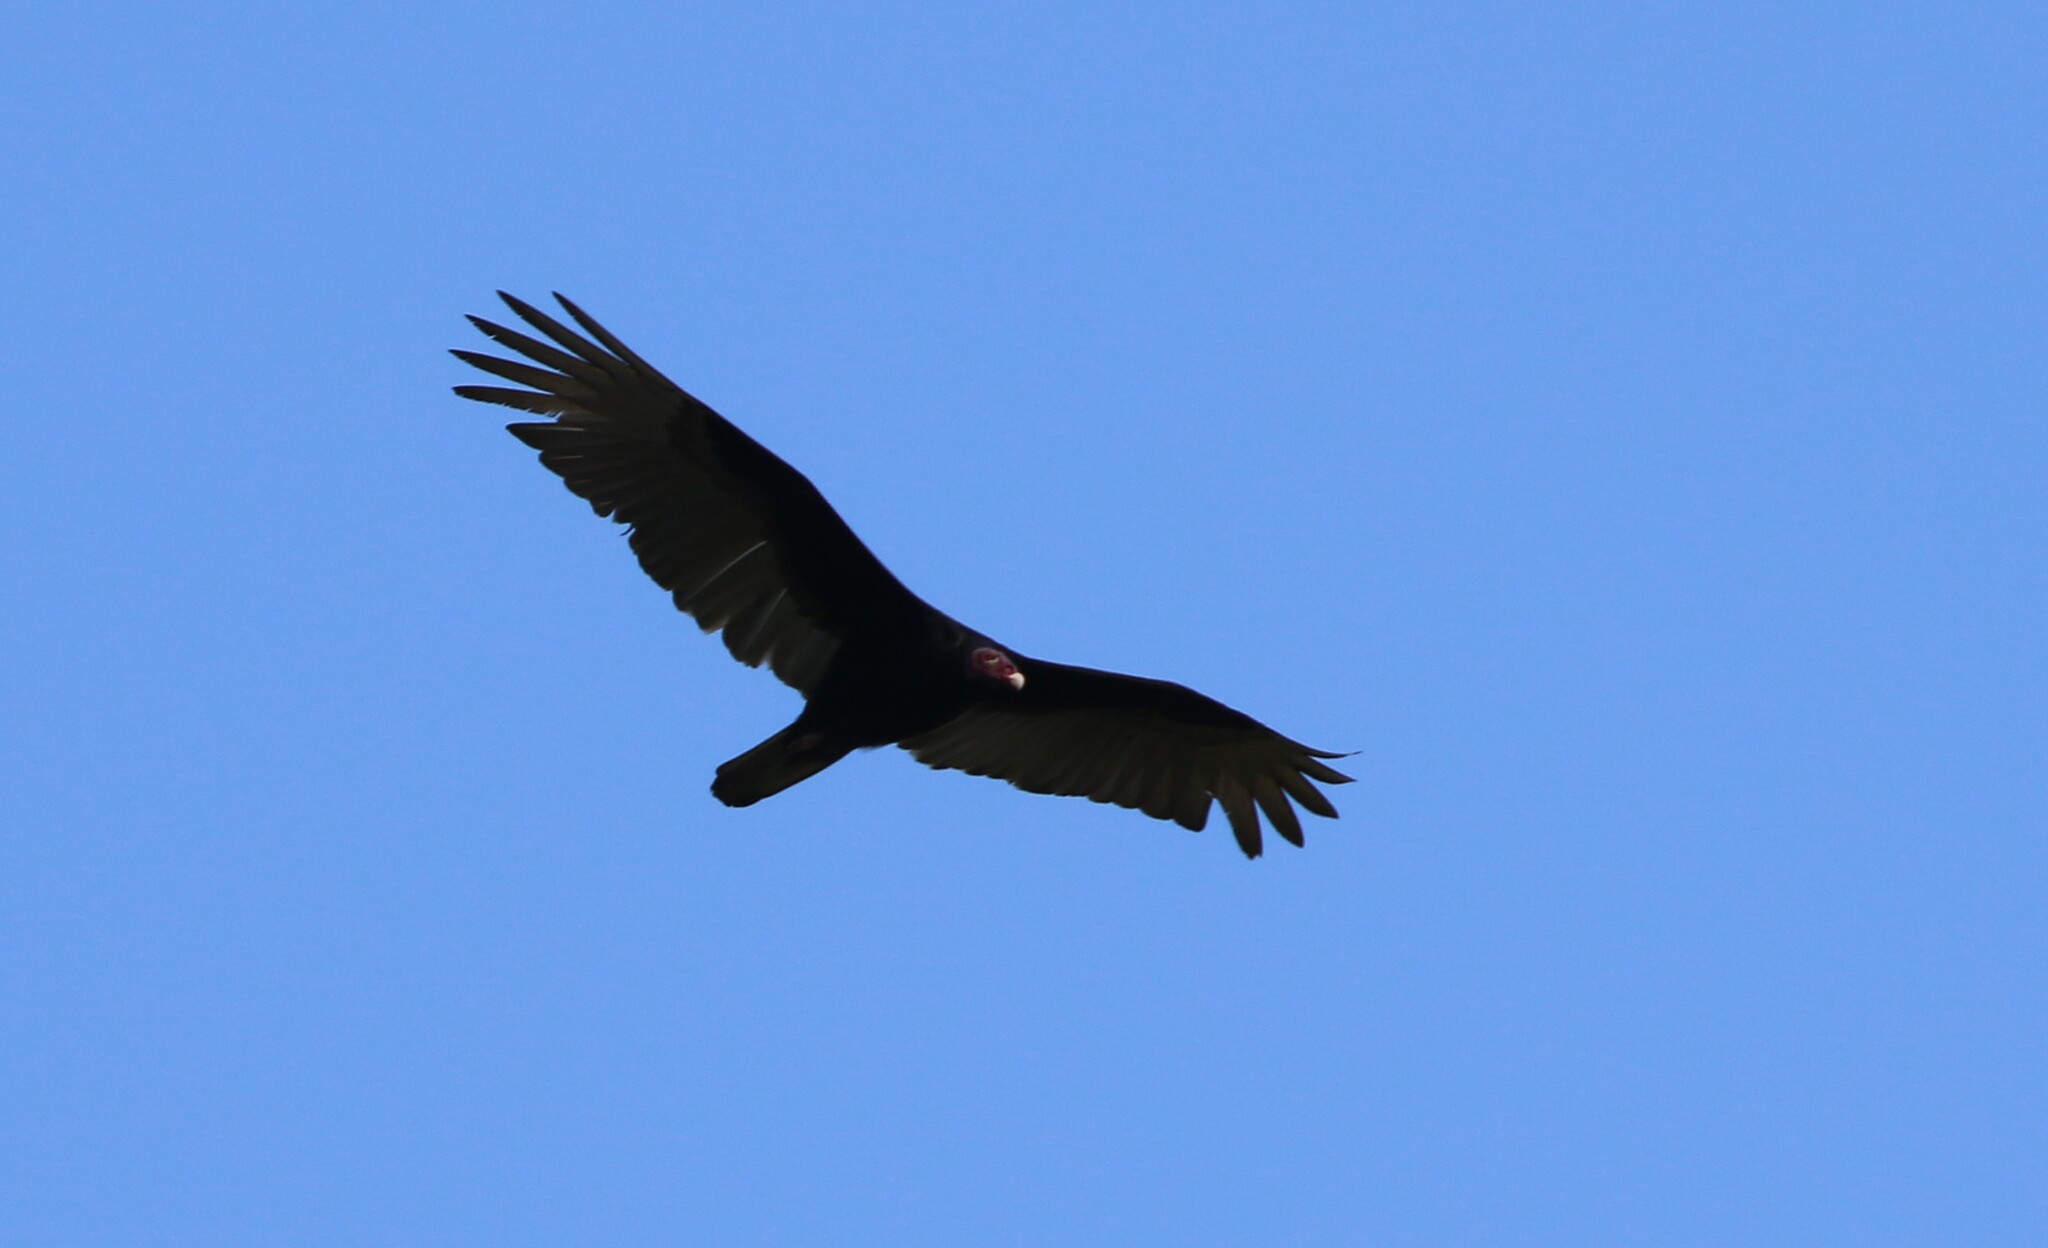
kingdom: Animalia
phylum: Chordata
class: Aves
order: Accipitriformes
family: Cathartidae
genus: Cathartes
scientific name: Cathartes aura
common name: Turkey vulture
